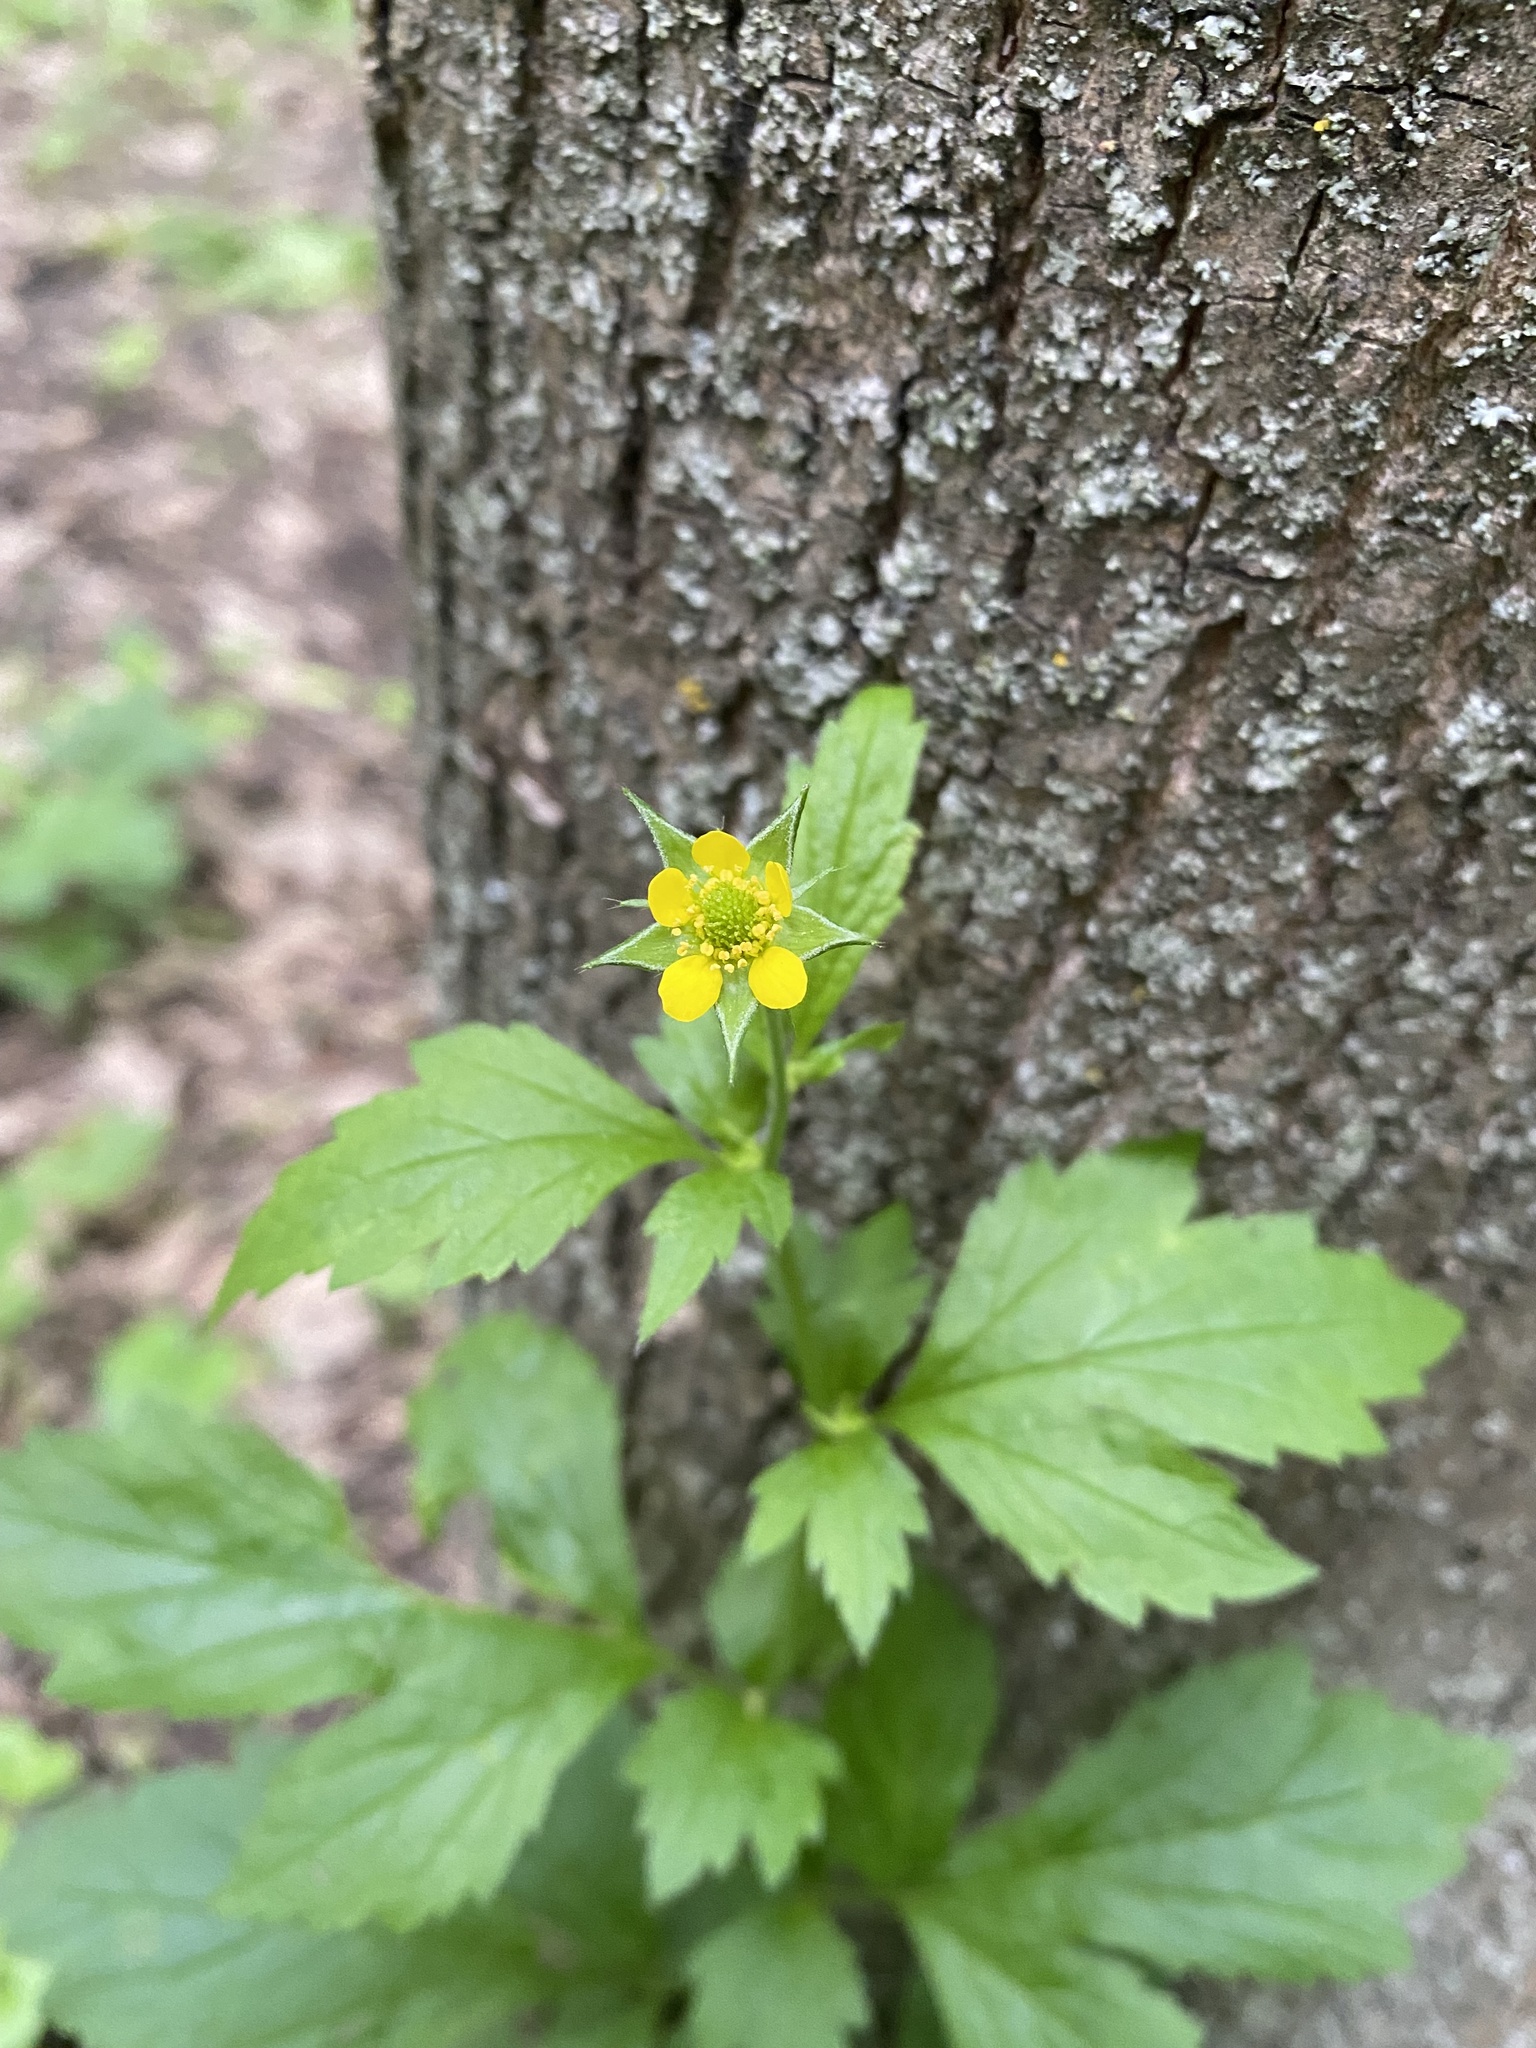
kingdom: Plantae
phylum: Tracheophyta
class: Magnoliopsida
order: Rosales
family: Rosaceae
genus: Geum
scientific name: Geum urbanum
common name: Wood avens
